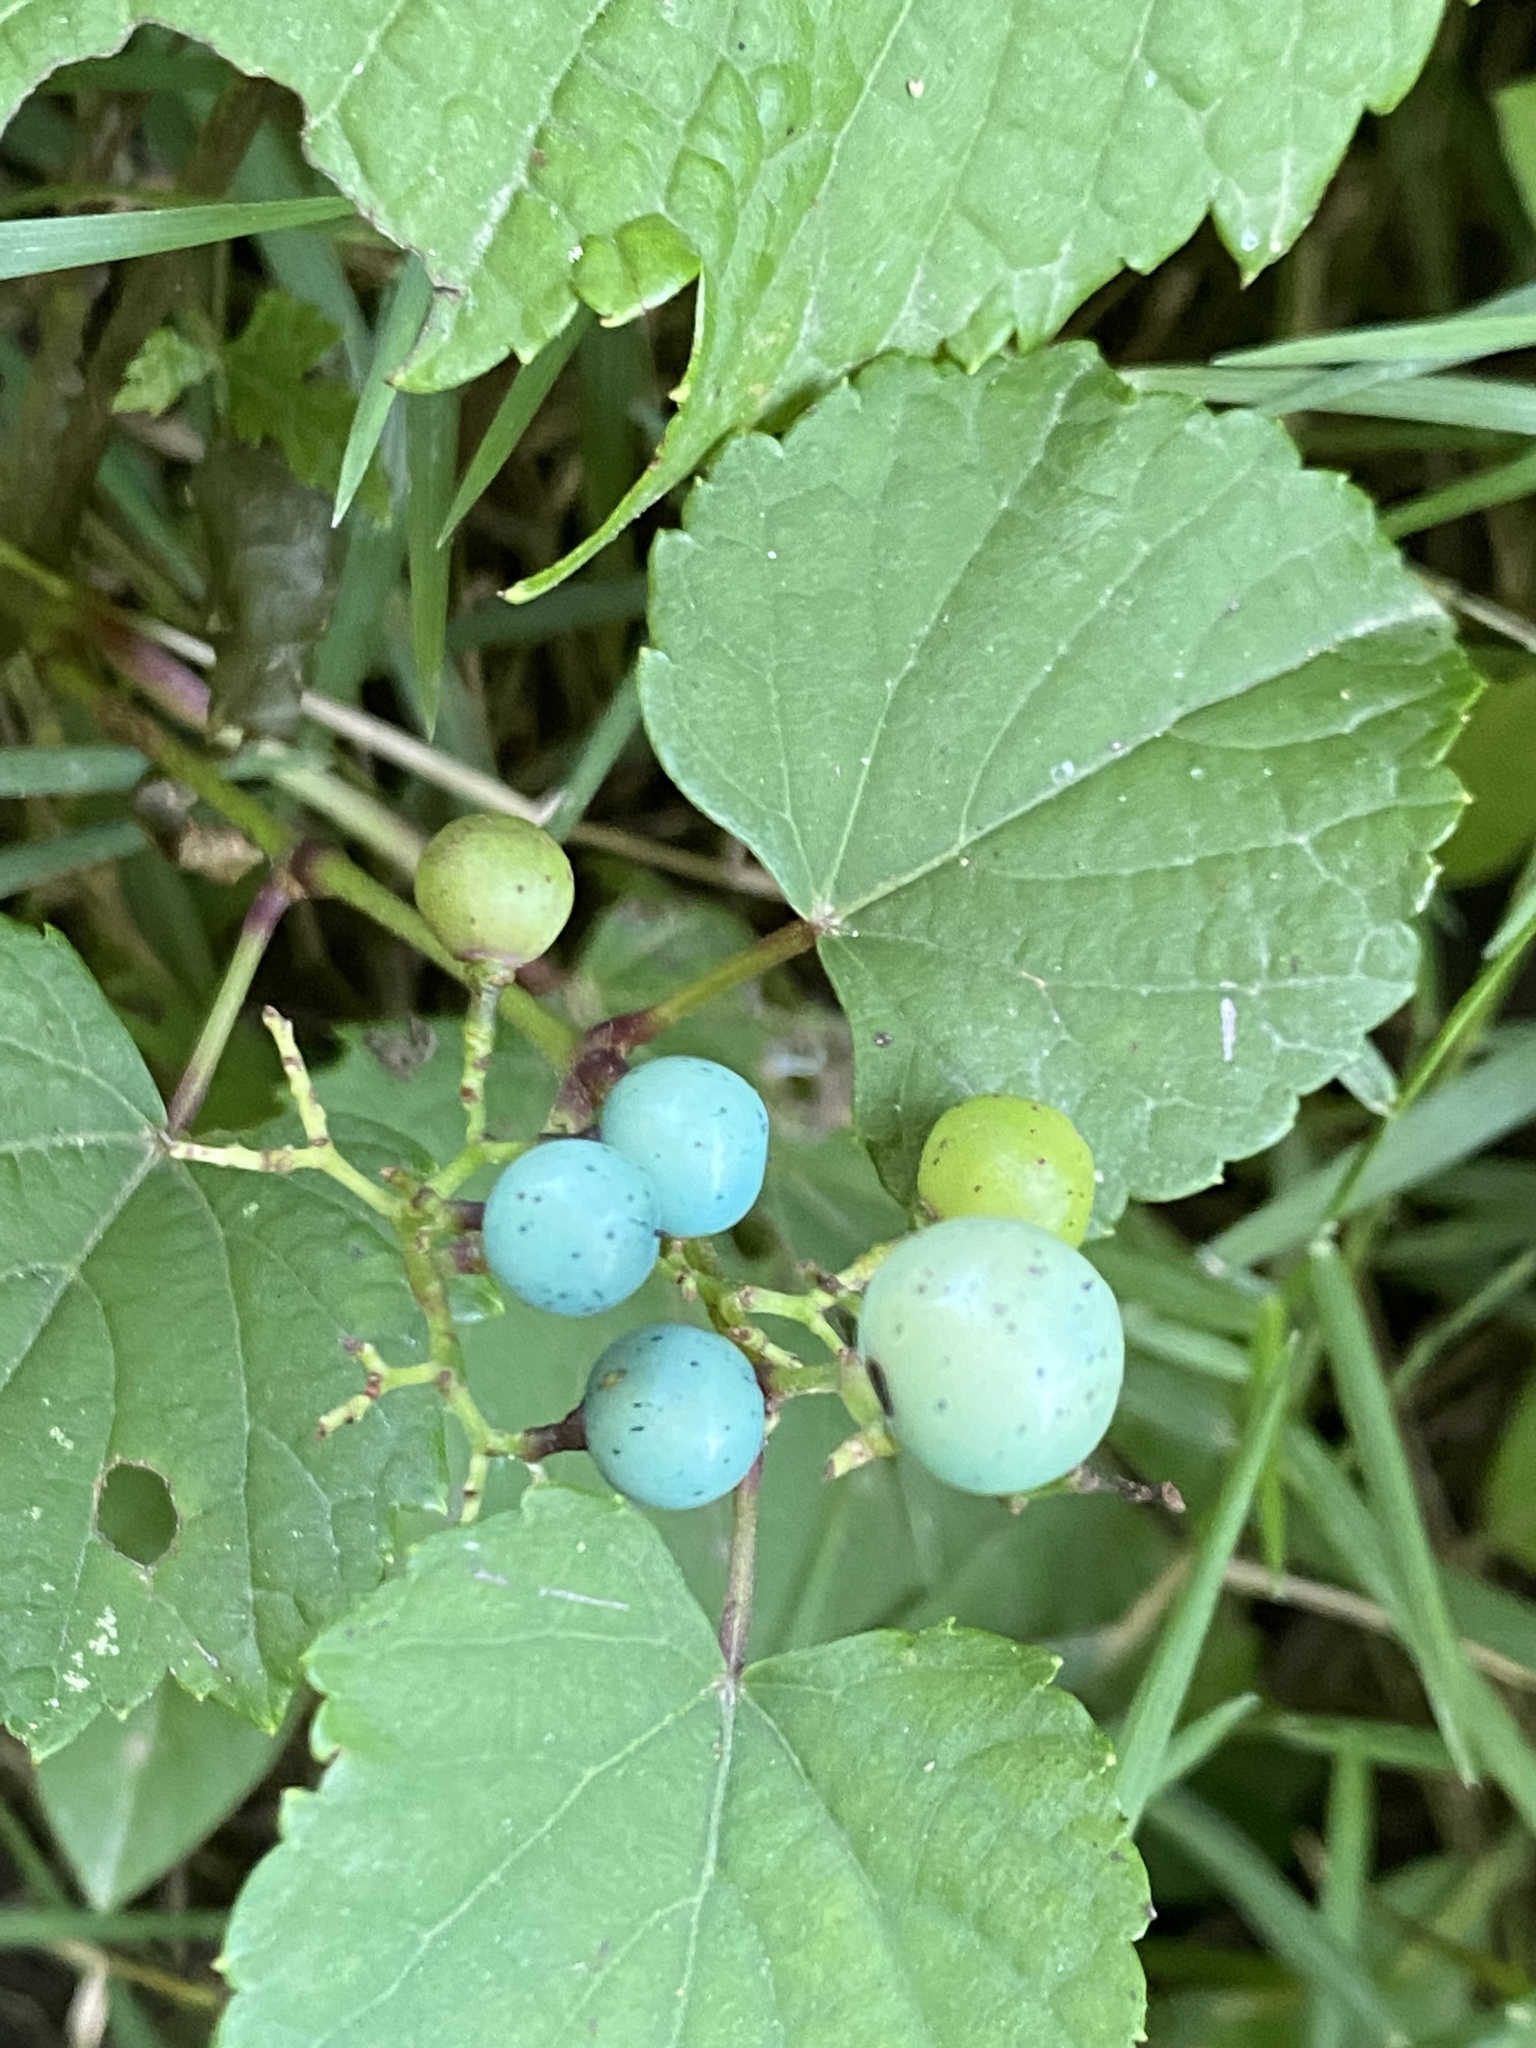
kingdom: Plantae
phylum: Tracheophyta
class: Magnoliopsida
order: Vitales
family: Vitaceae
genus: Ampelopsis
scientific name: Ampelopsis glandulosa
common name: Amur peppervine
